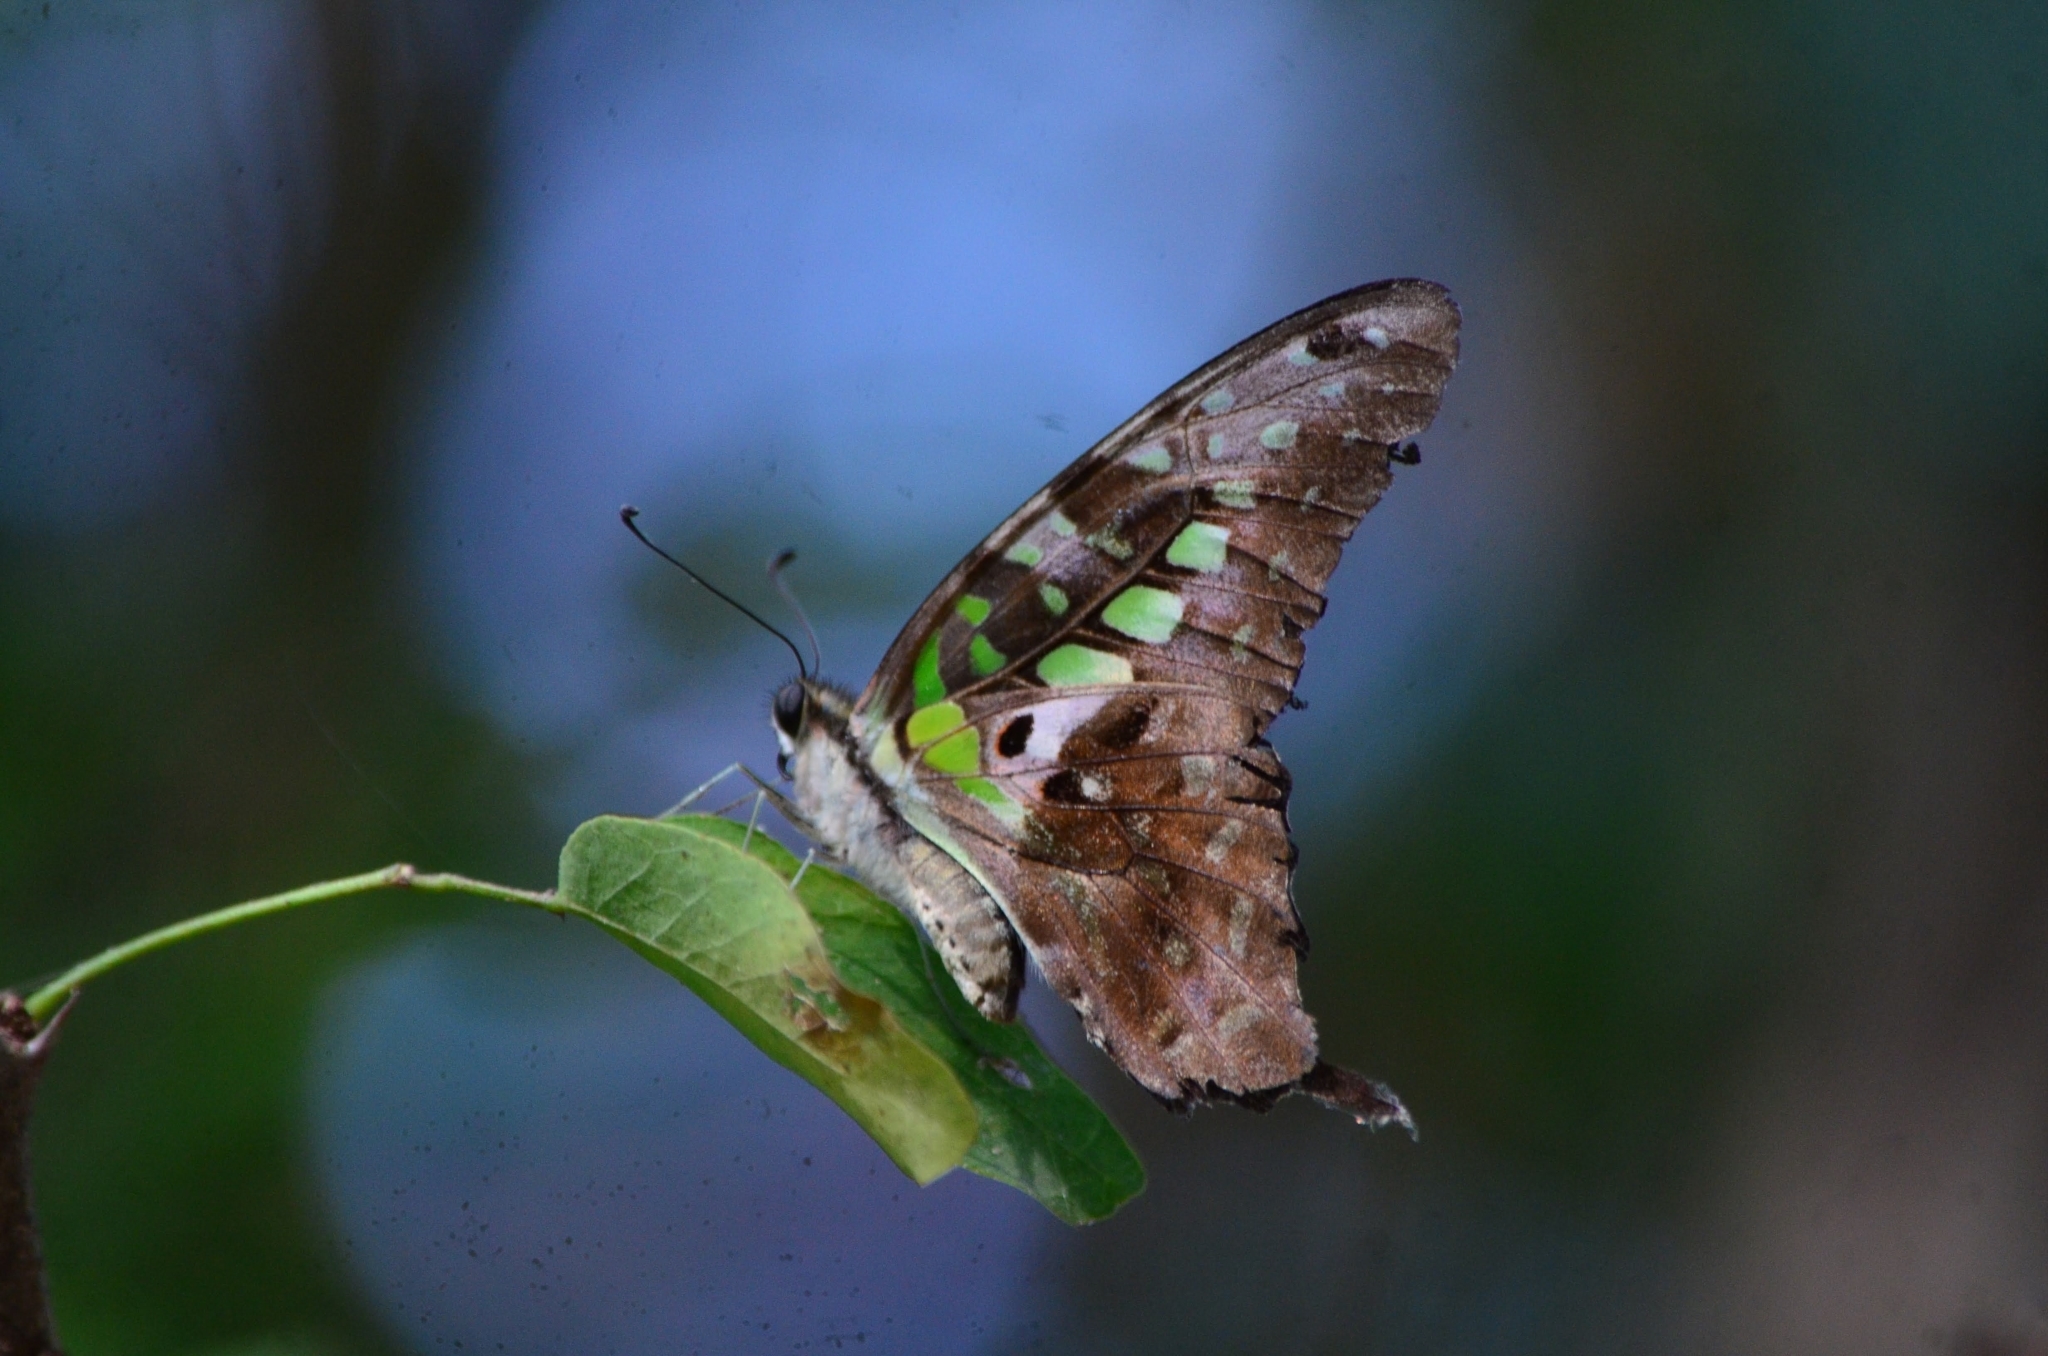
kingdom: Animalia
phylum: Arthropoda
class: Insecta
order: Lepidoptera
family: Papilionidae
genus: Graphium
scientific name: Graphium agamemnon
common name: Tailed jay
